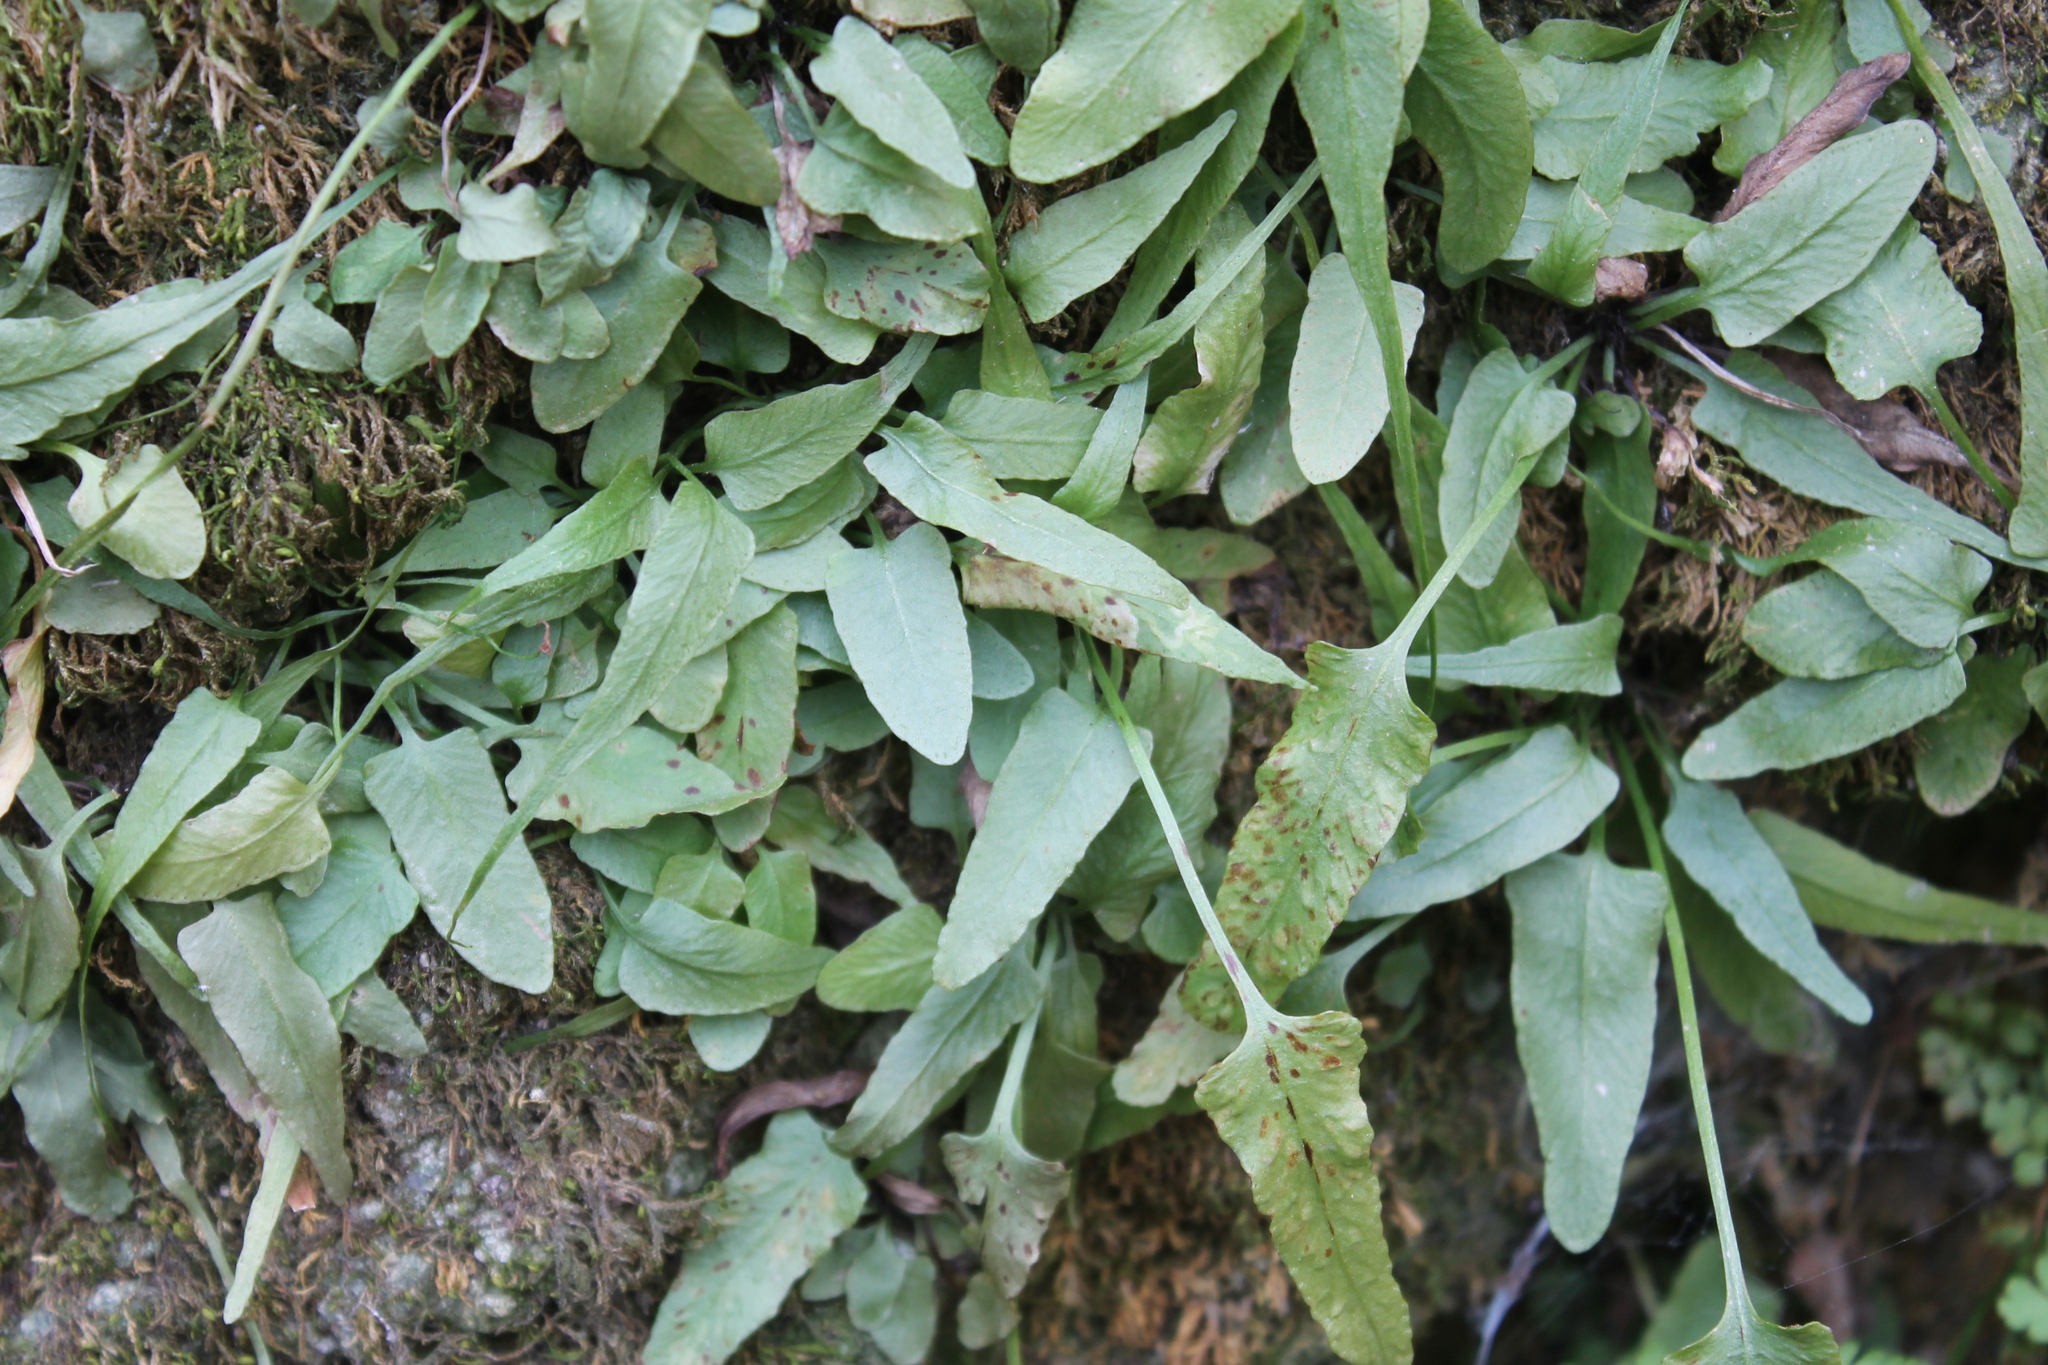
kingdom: Plantae
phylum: Tracheophyta
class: Polypodiopsida
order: Polypodiales
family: Aspleniaceae
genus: Asplenium
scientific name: Asplenium rhizophyllum
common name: Walking fern
